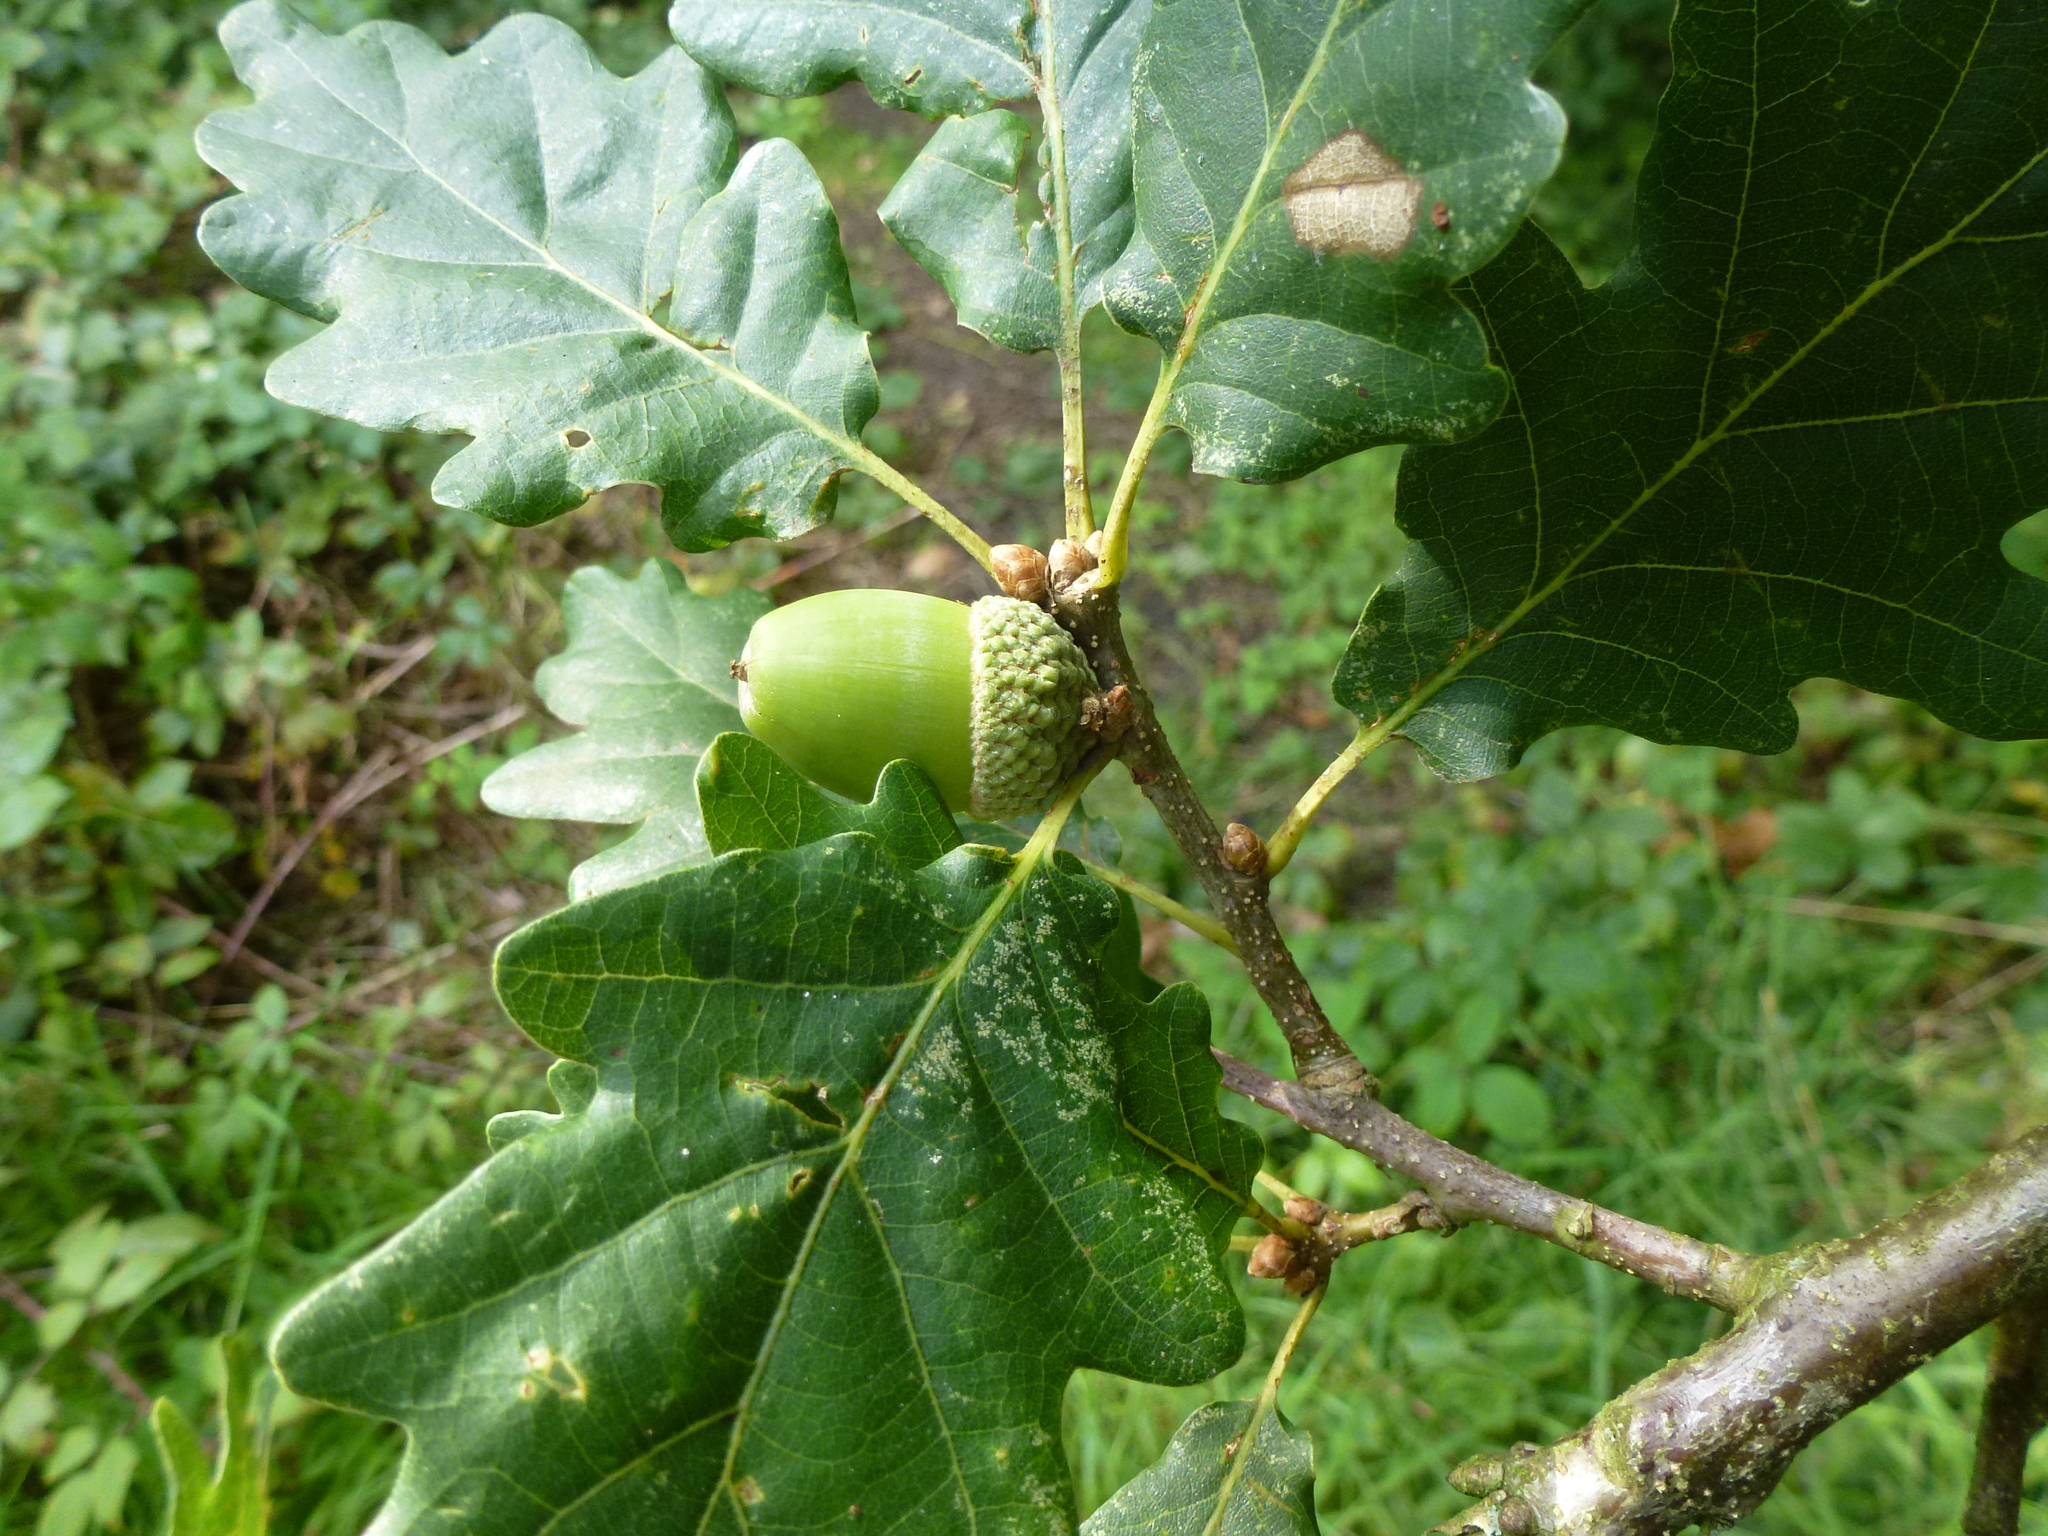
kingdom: Plantae
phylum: Tracheophyta
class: Magnoliopsida
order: Fagales
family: Fagaceae
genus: Quercus
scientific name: Quercus petraea
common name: Sessile oak
